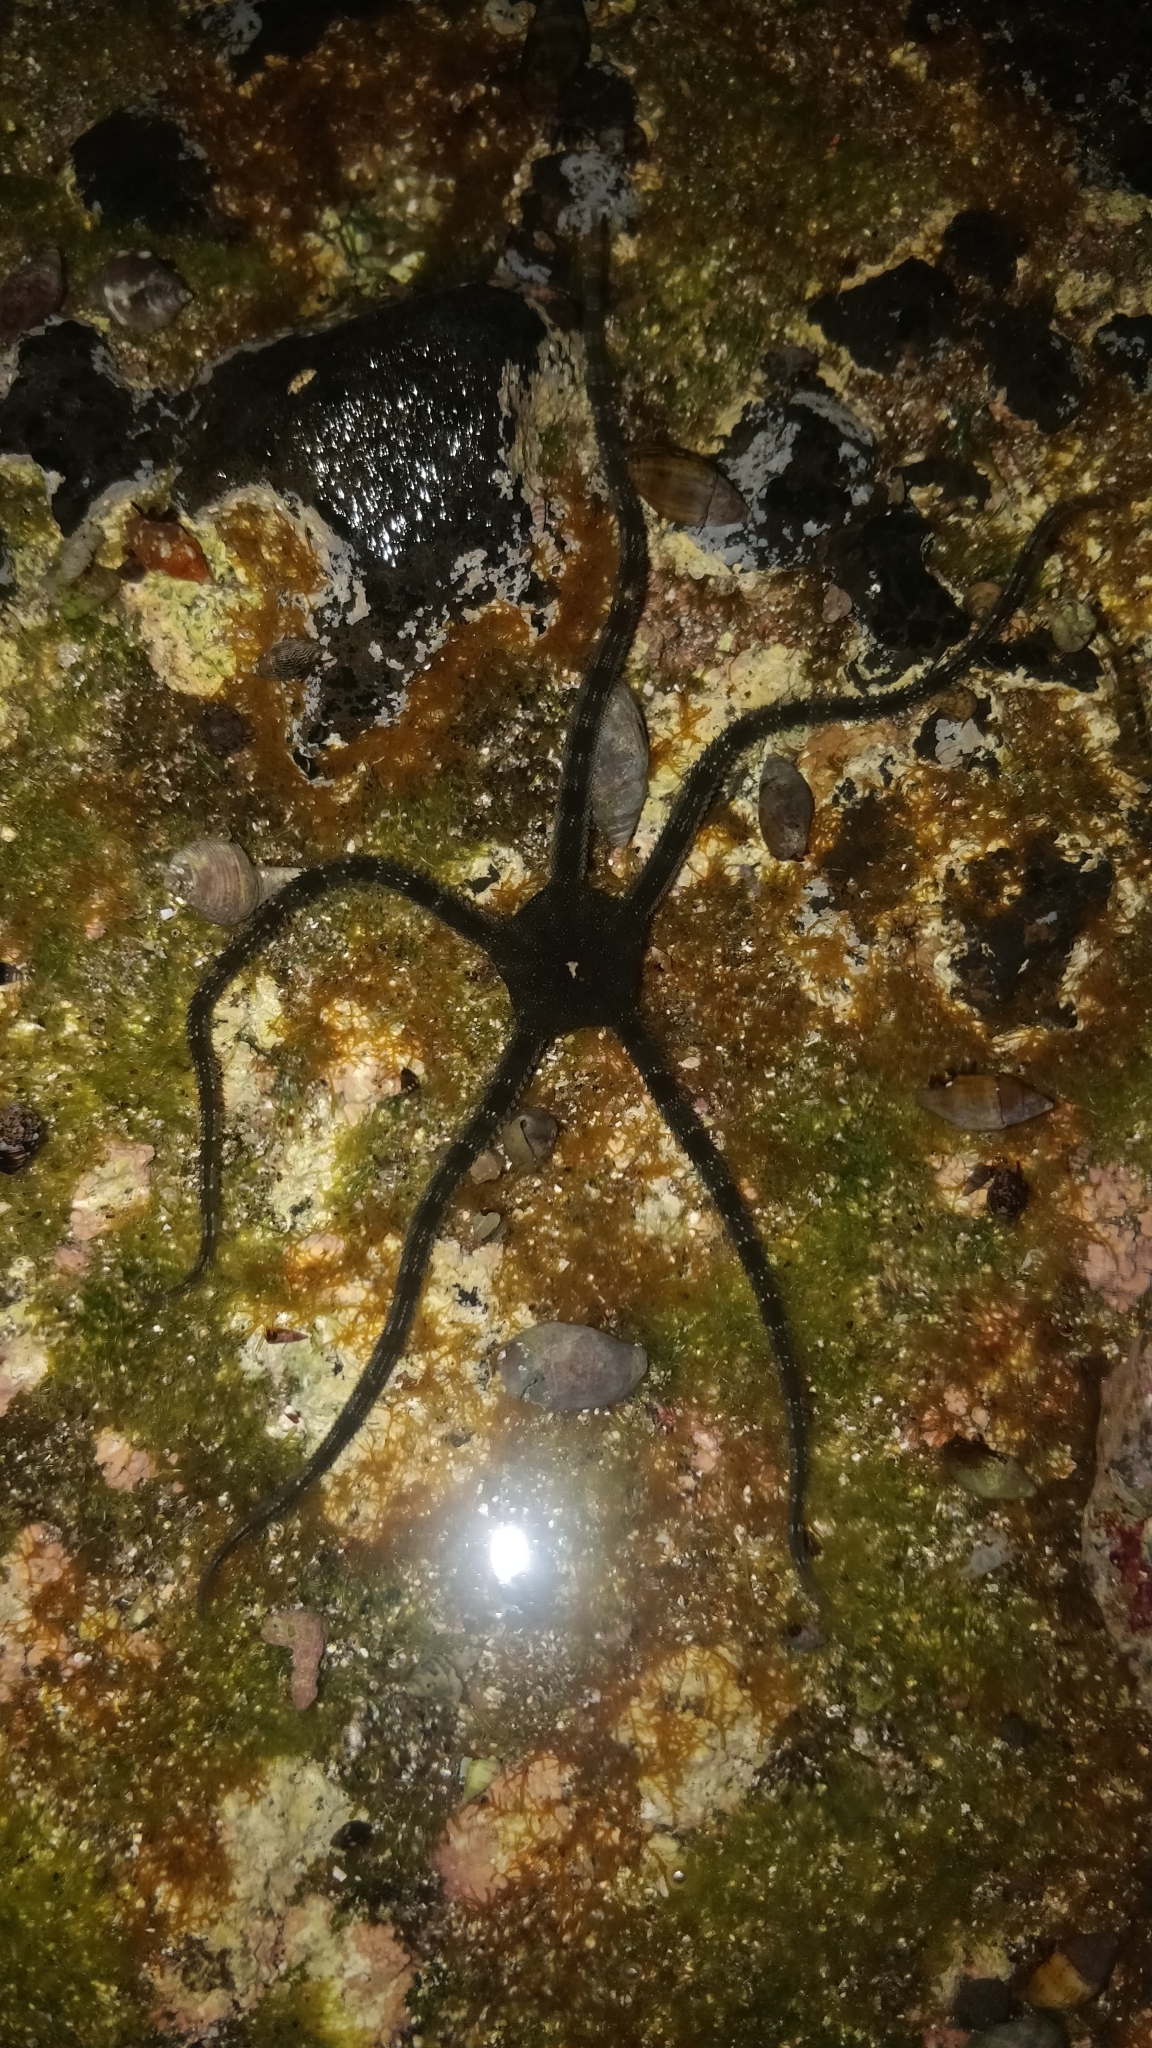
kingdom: Animalia
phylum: Echinodermata
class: Ophiuroidea
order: Ophiacanthida
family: Ophiodermatidae
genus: Ophioderma
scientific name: Ophioderma longicaudum
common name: Smooth brittle-star
